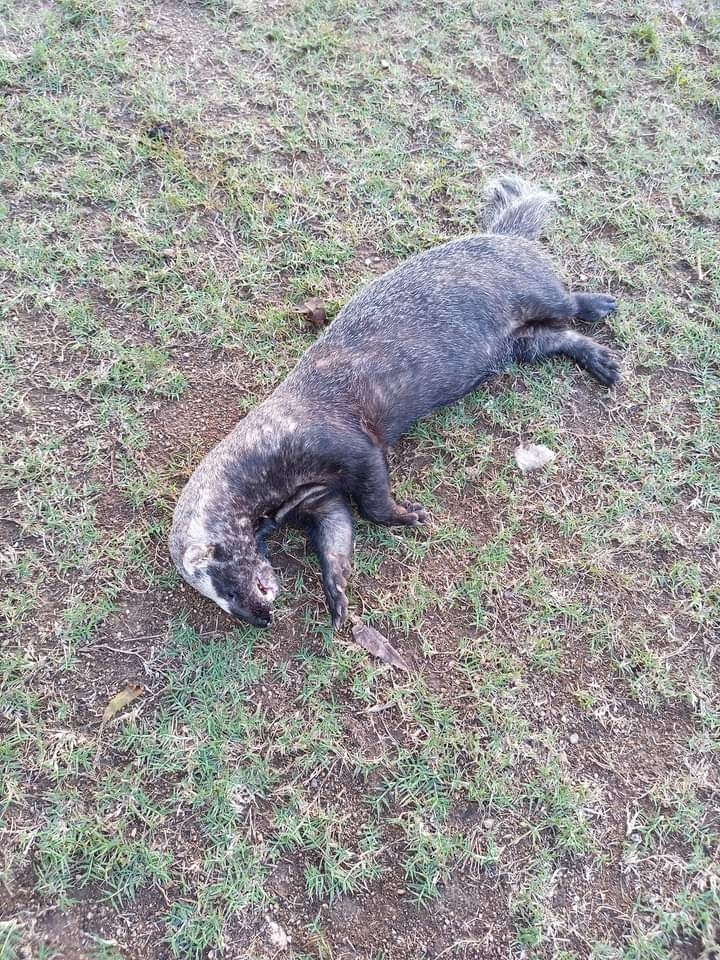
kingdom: Animalia
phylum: Chordata
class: Mammalia
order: Carnivora
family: Mustelidae
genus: Galictis
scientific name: Galictis vittata
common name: Greater grison
